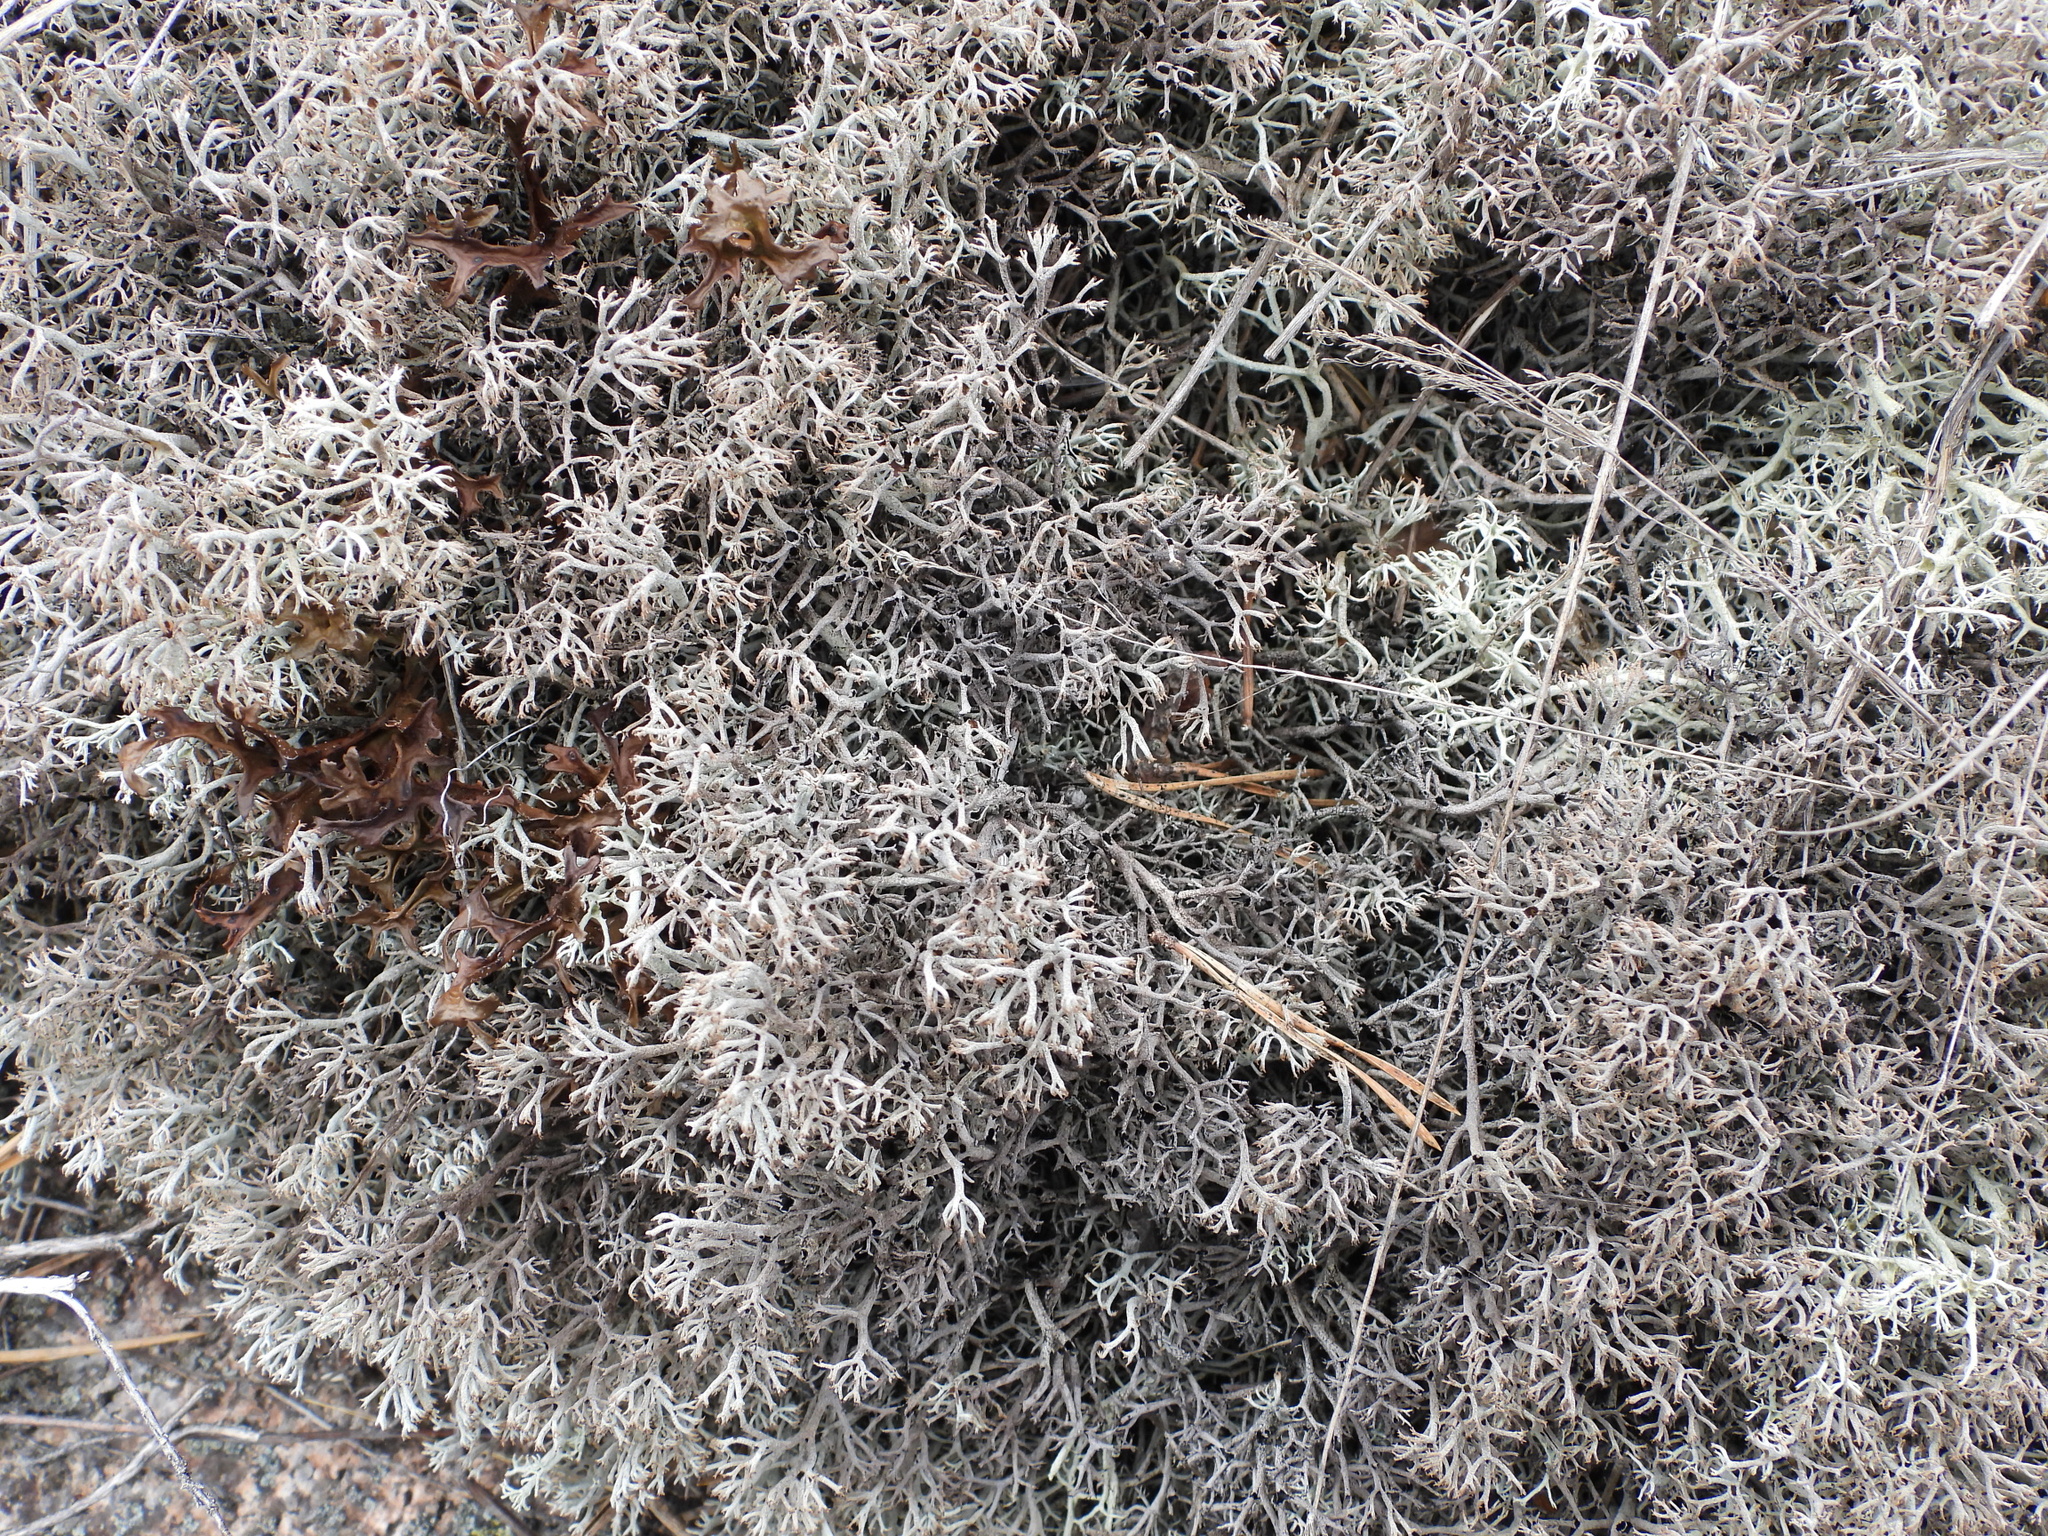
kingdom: Fungi
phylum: Ascomycota
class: Lecanoromycetes
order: Lecanorales
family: Cladoniaceae
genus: Cladonia
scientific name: Cladonia stygia
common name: Black-footed reindeer lichen
